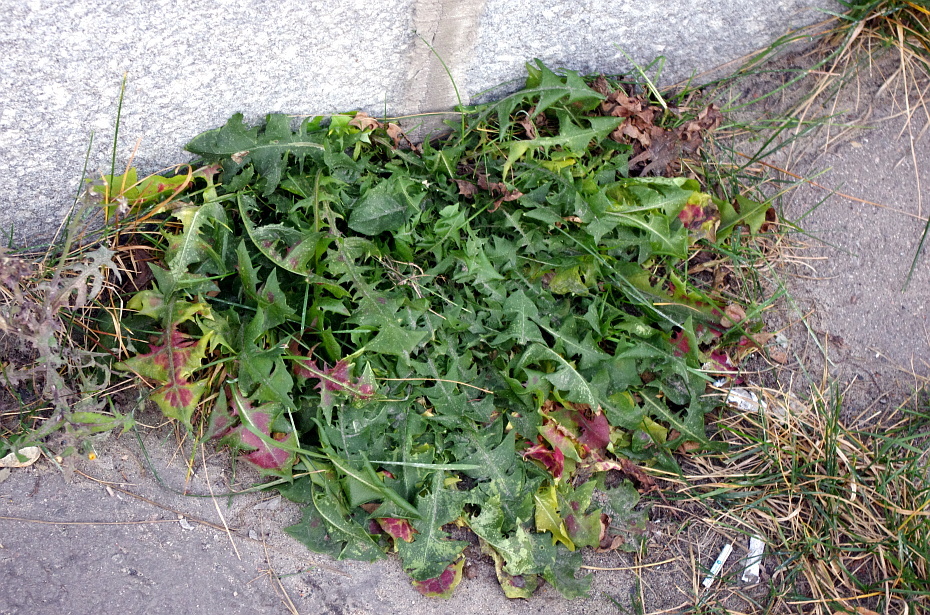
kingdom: Plantae
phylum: Tracheophyta
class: Magnoliopsida
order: Asterales
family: Asteraceae
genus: Taraxacum
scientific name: Taraxacum officinale
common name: Common dandelion
